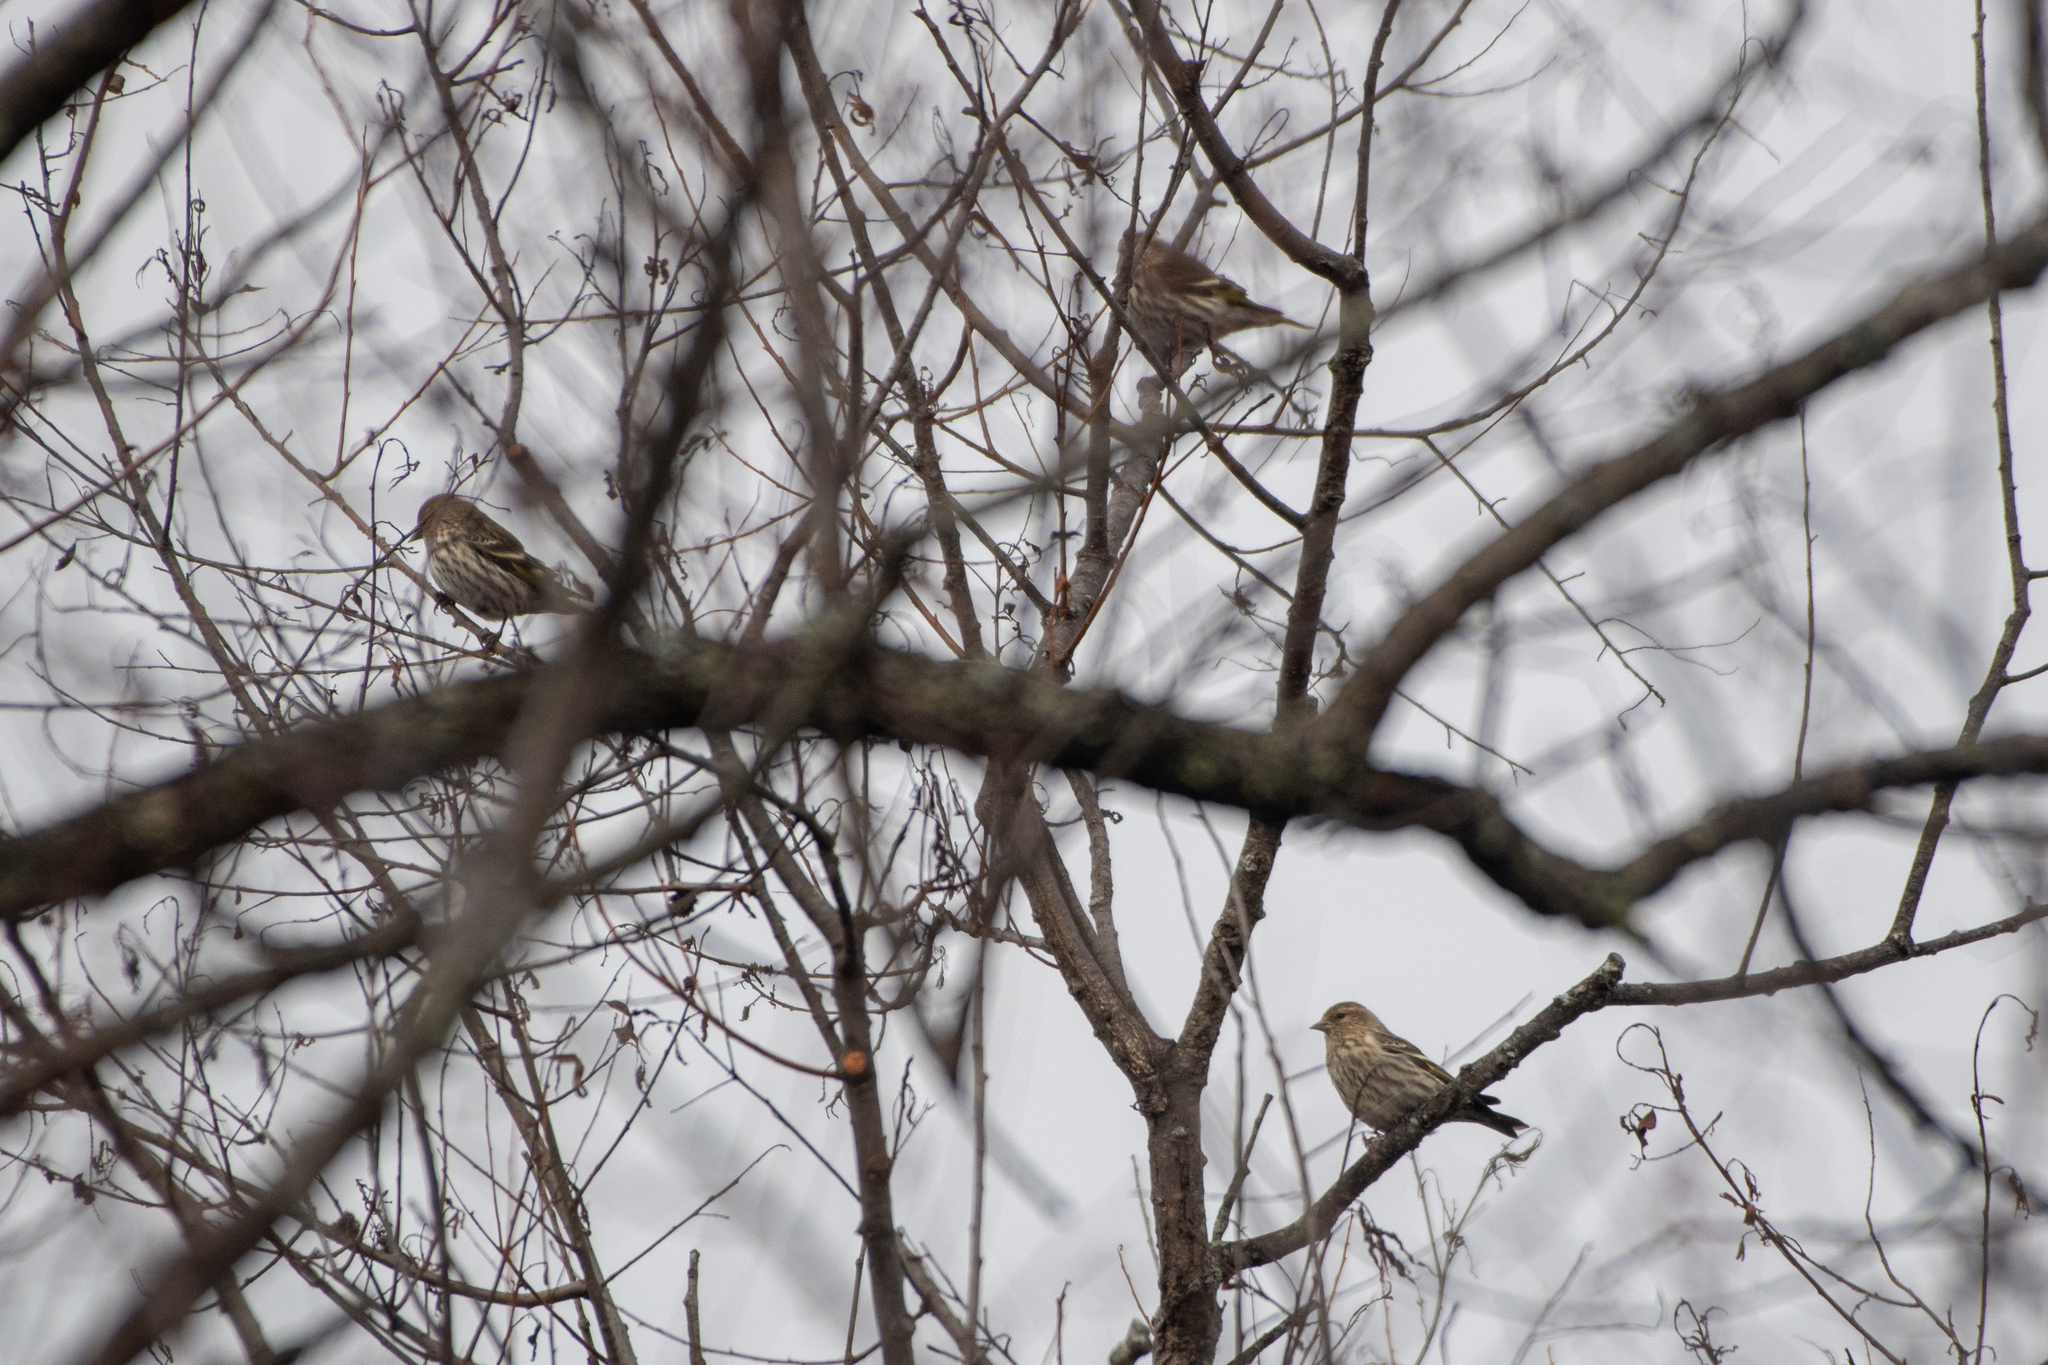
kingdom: Animalia
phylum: Chordata
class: Aves
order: Passeriformes
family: Fringillidae
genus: Spinus
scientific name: Spinus pinus
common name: Pine siskin
